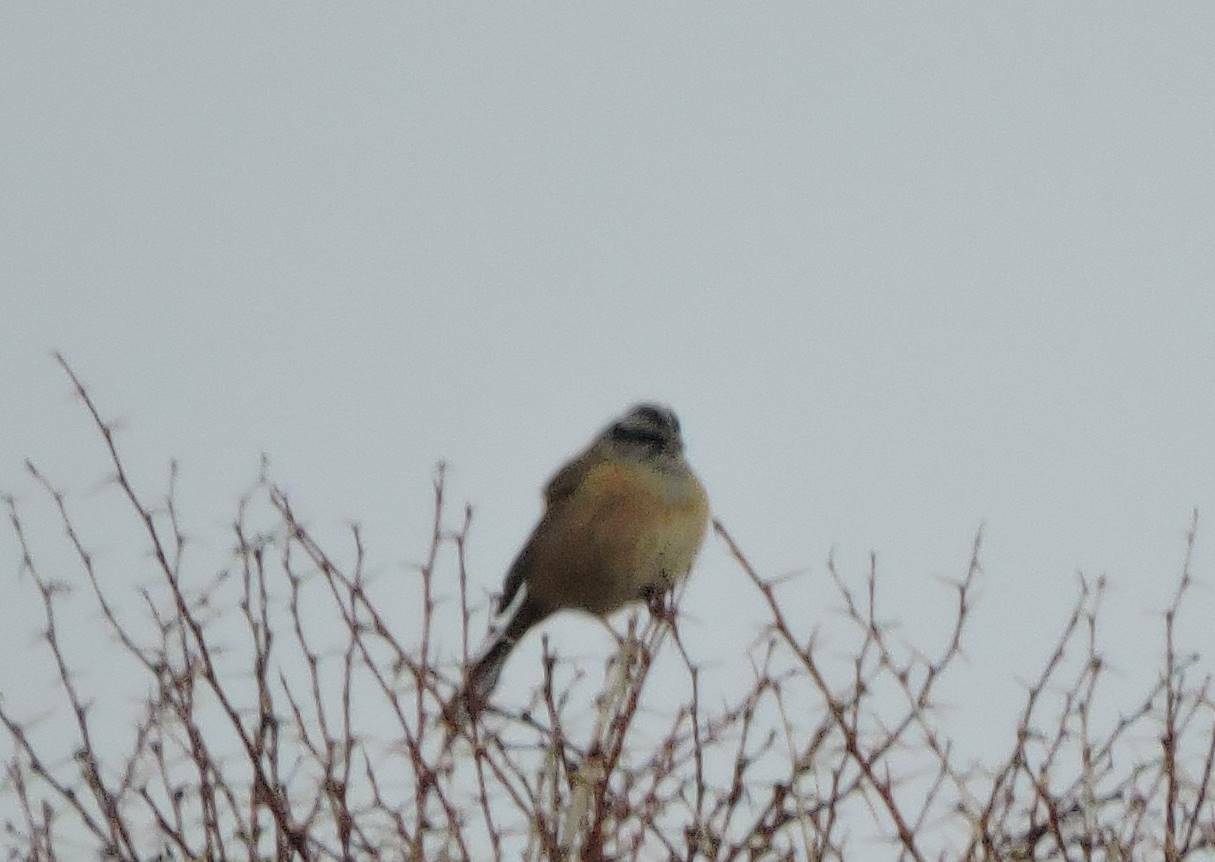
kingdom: Animalia
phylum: Chordata
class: Aves
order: Passeriformes
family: Emberizidae
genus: Emberiza
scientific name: Emberiza cia
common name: Rock bunting
